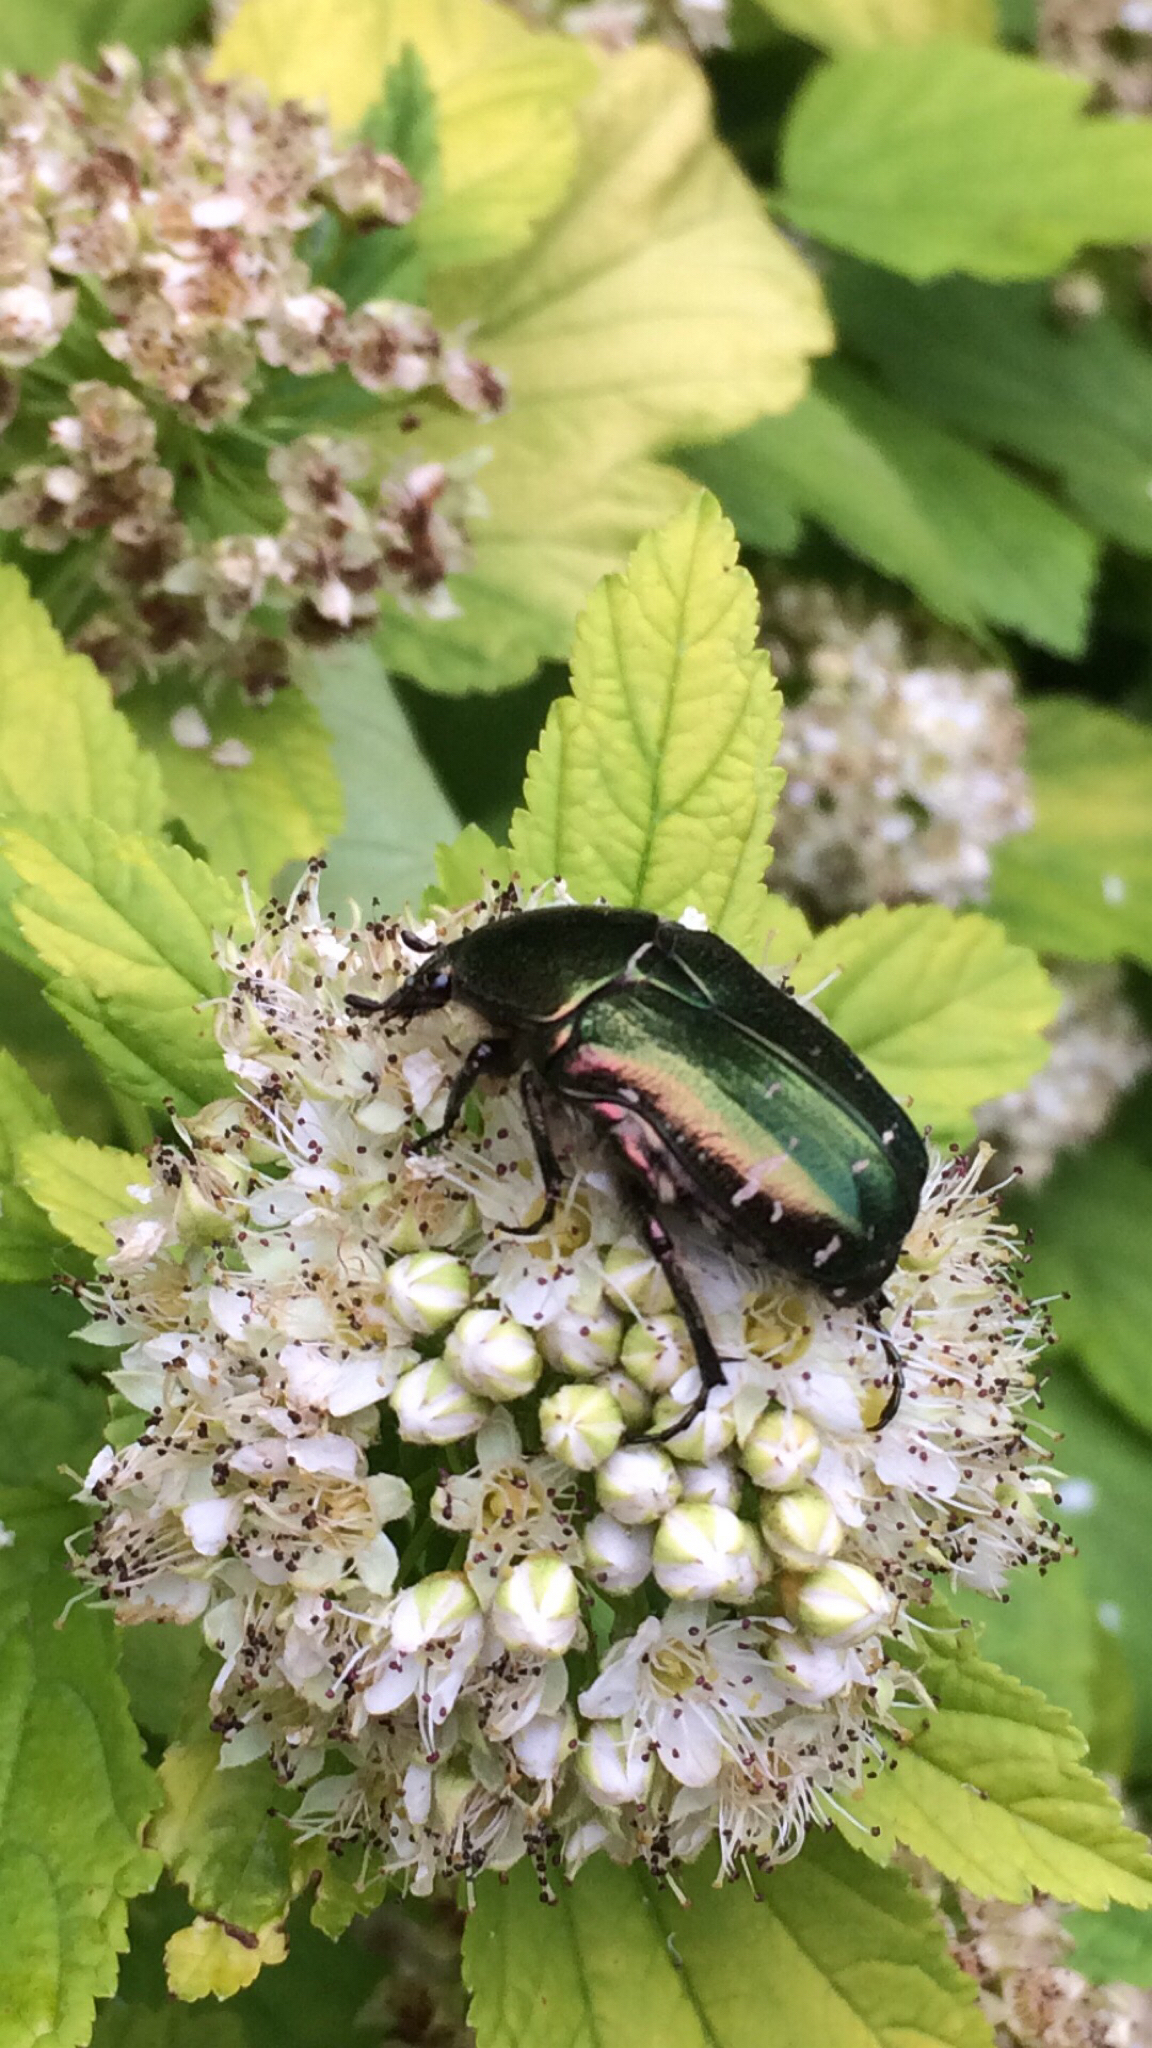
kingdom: Animalia
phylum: Arthropoda
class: Insecta
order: Coleoptera
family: Scarabaeidae
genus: Cetonia
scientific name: Cetonia aurata
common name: Rose chafer
